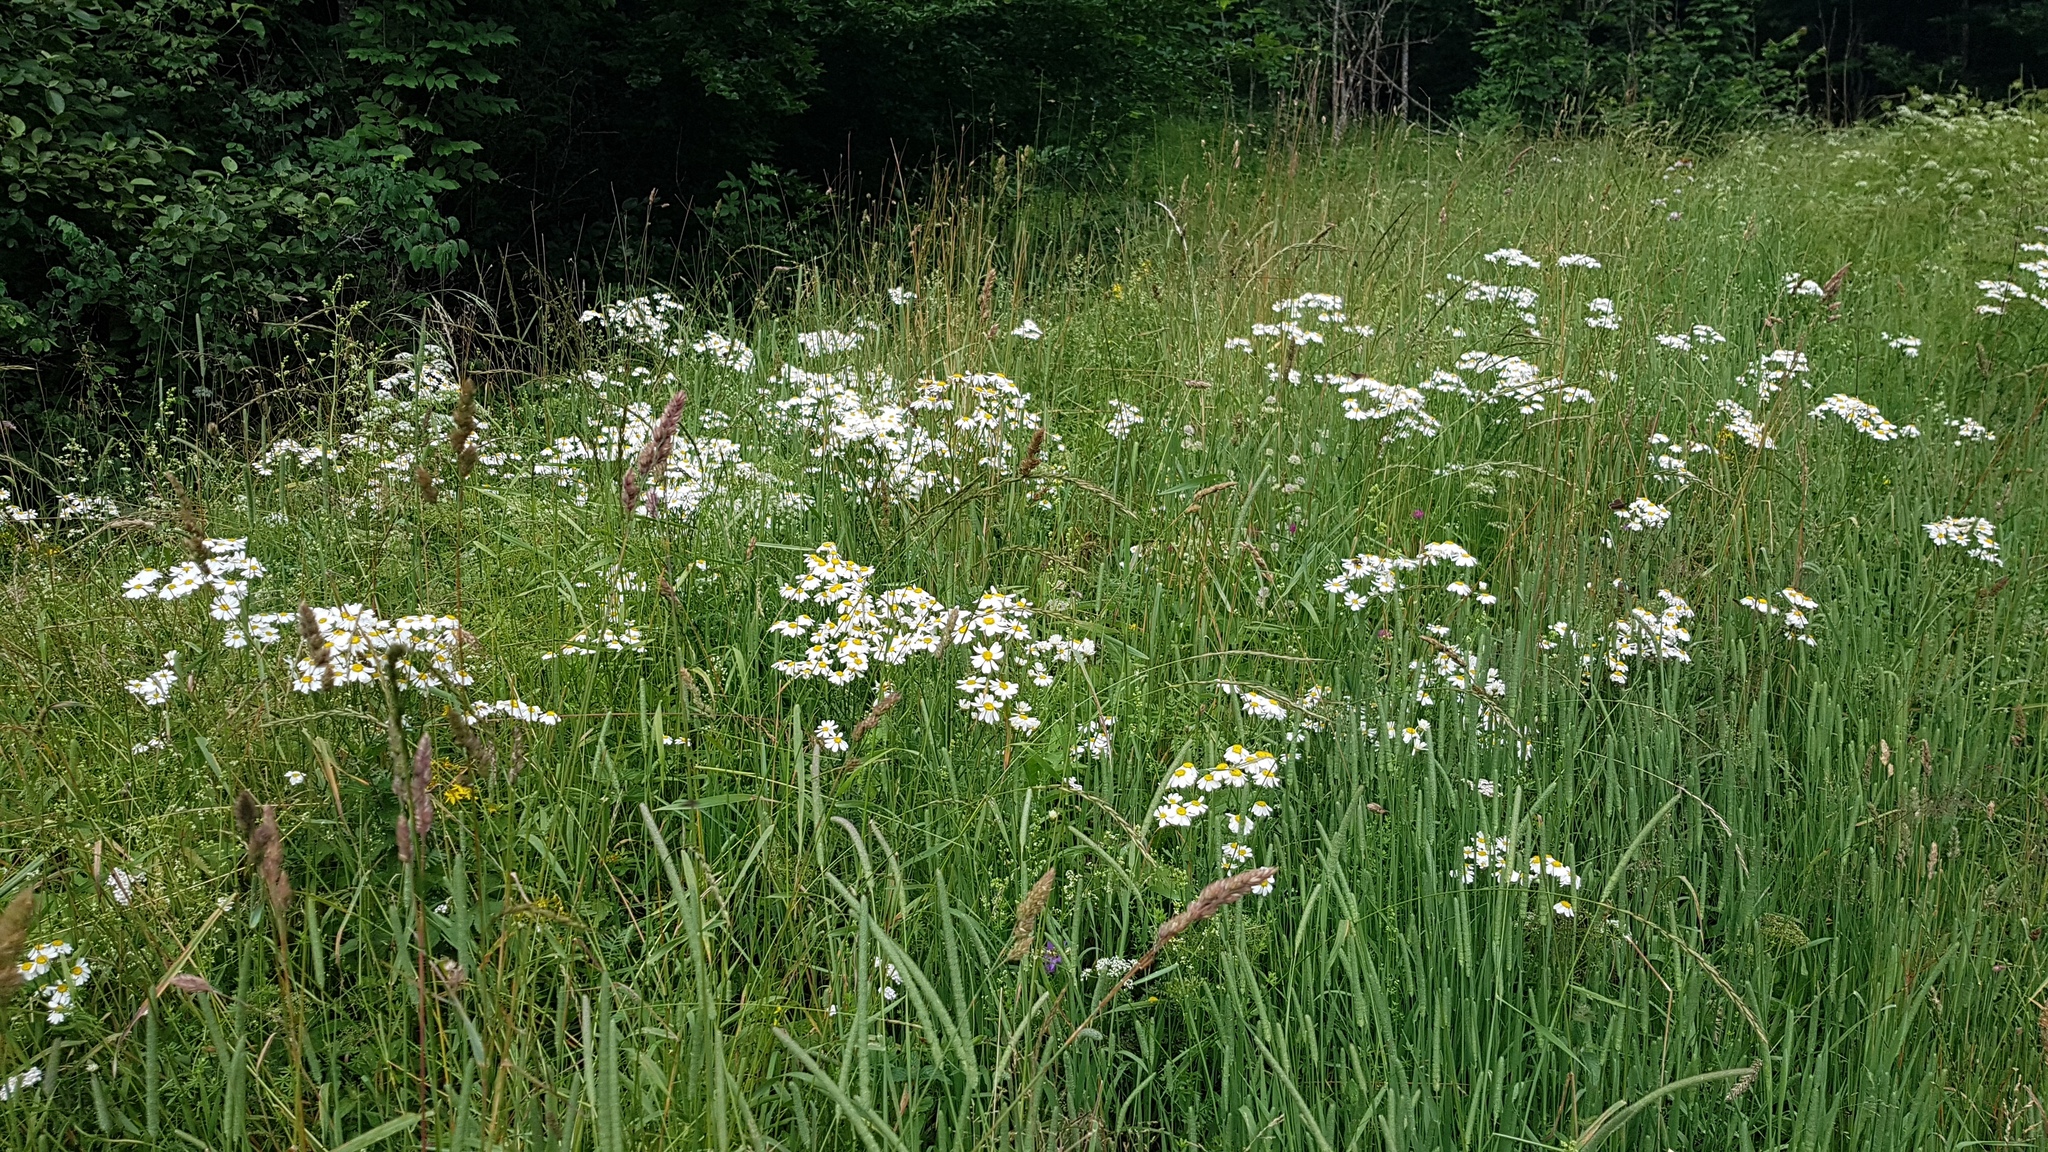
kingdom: Plantae
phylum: Tracheophyta
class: Magnoliopsida
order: Asterales
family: Asteraceae
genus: Tanacetum
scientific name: Tanacetum corymbosum
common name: Scentless feverfew
